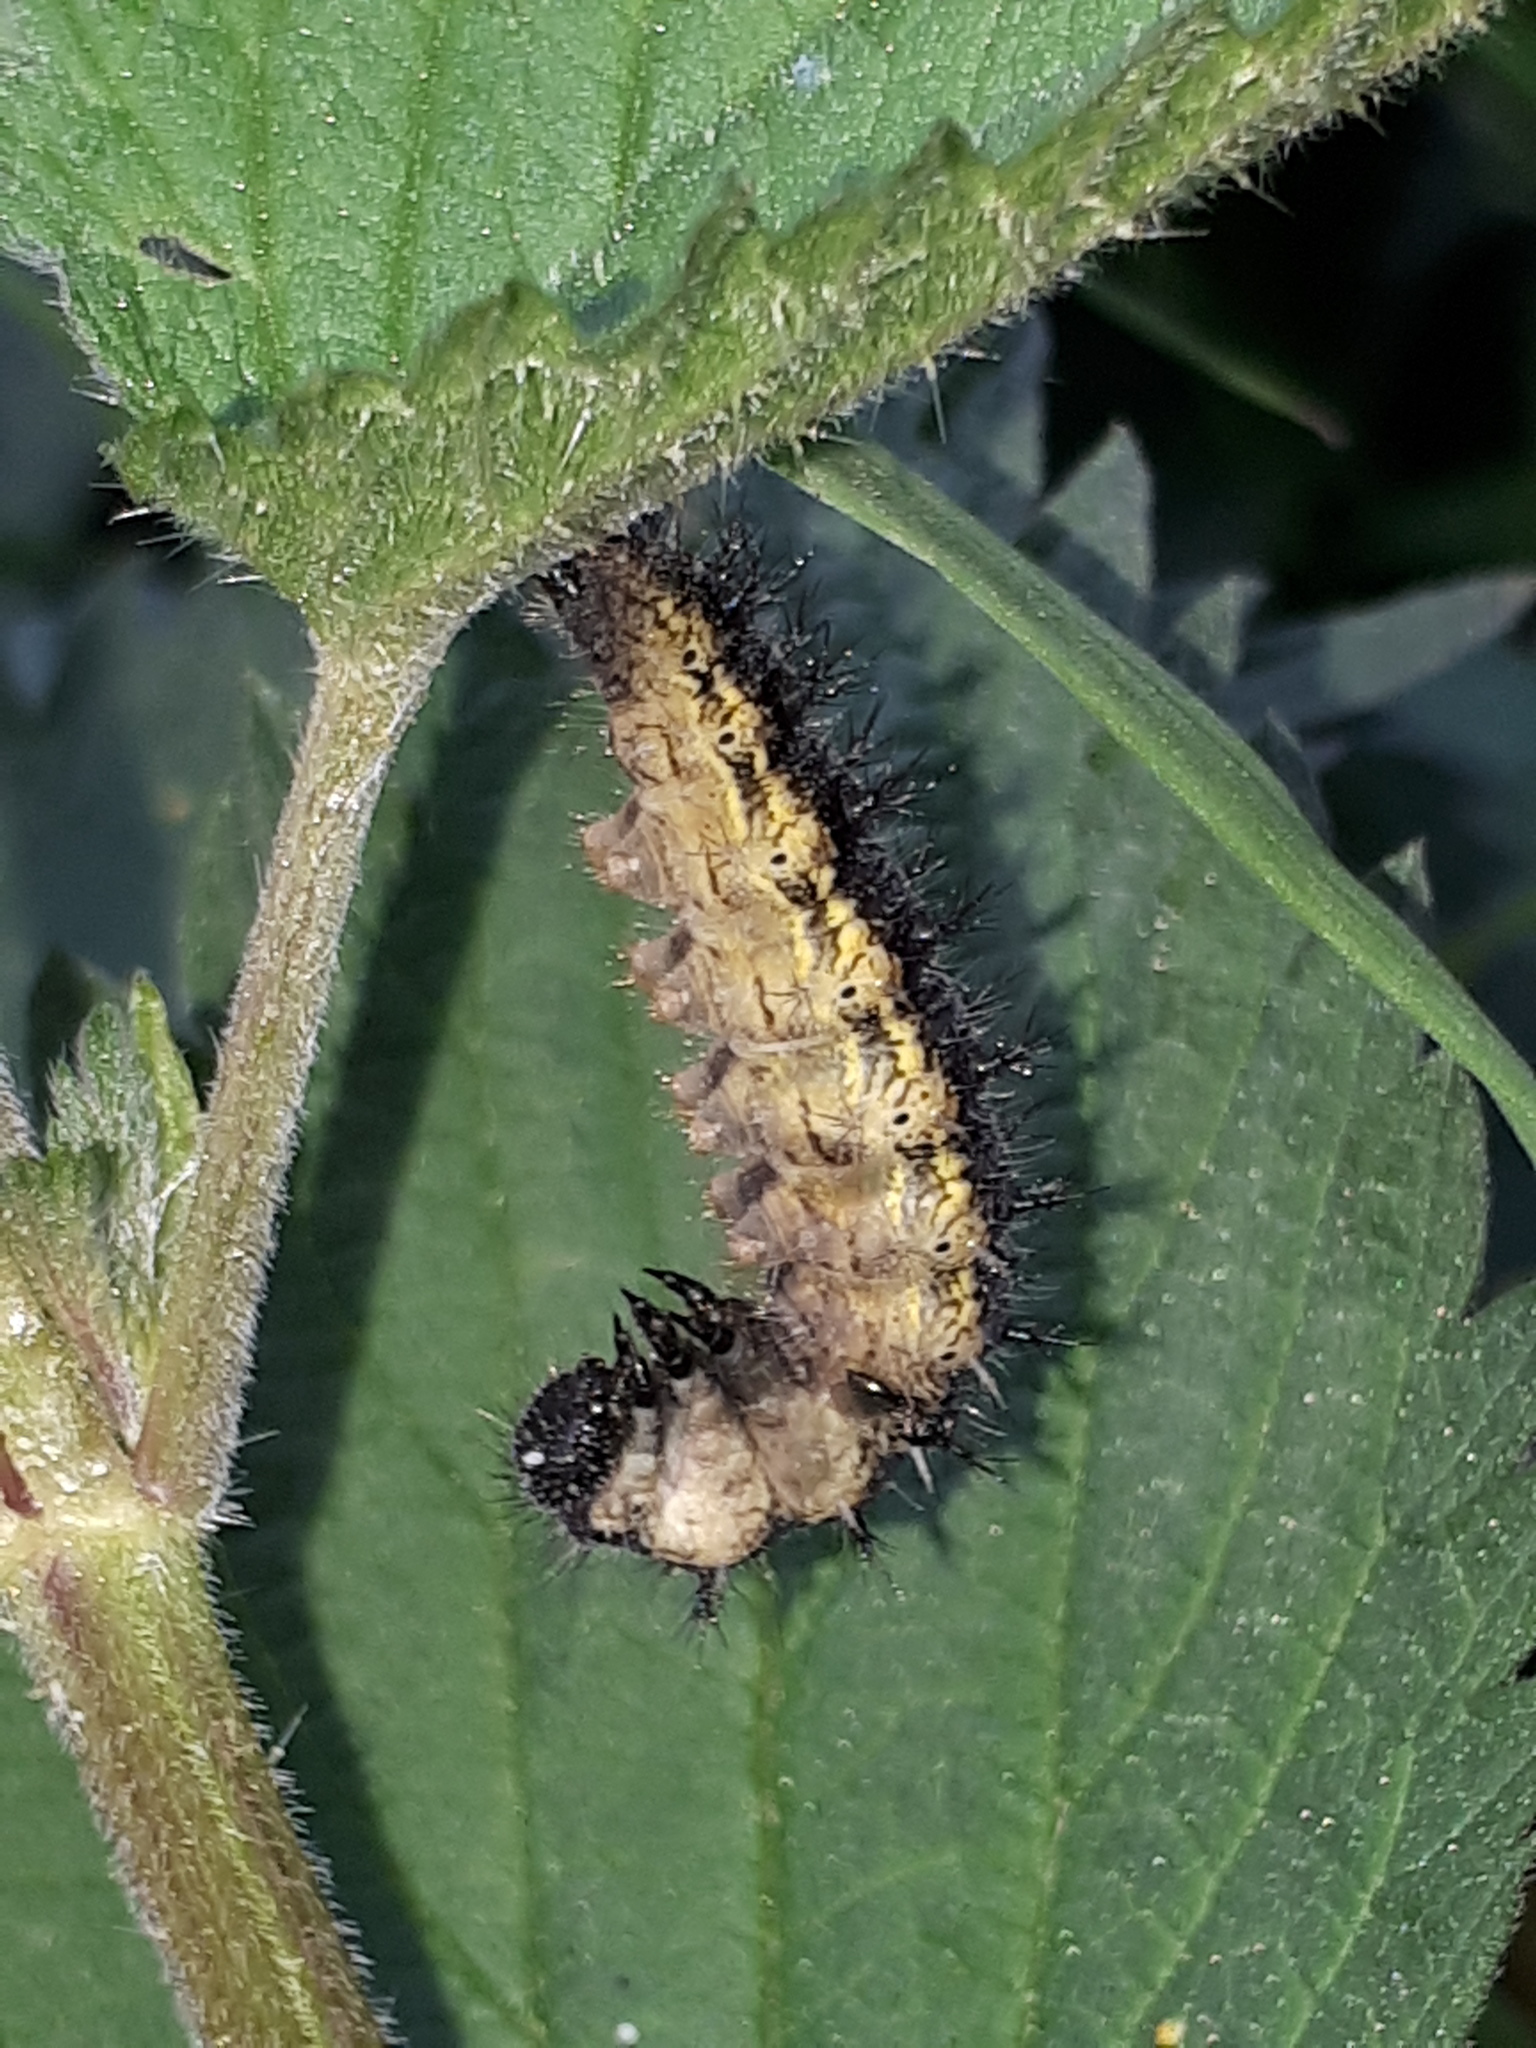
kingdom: Animalia
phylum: Arthropoda
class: Insecta
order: Lepidoptera
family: Nymphalidae
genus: Aglais
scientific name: Aglais urticae
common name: Small tortoiseshell
